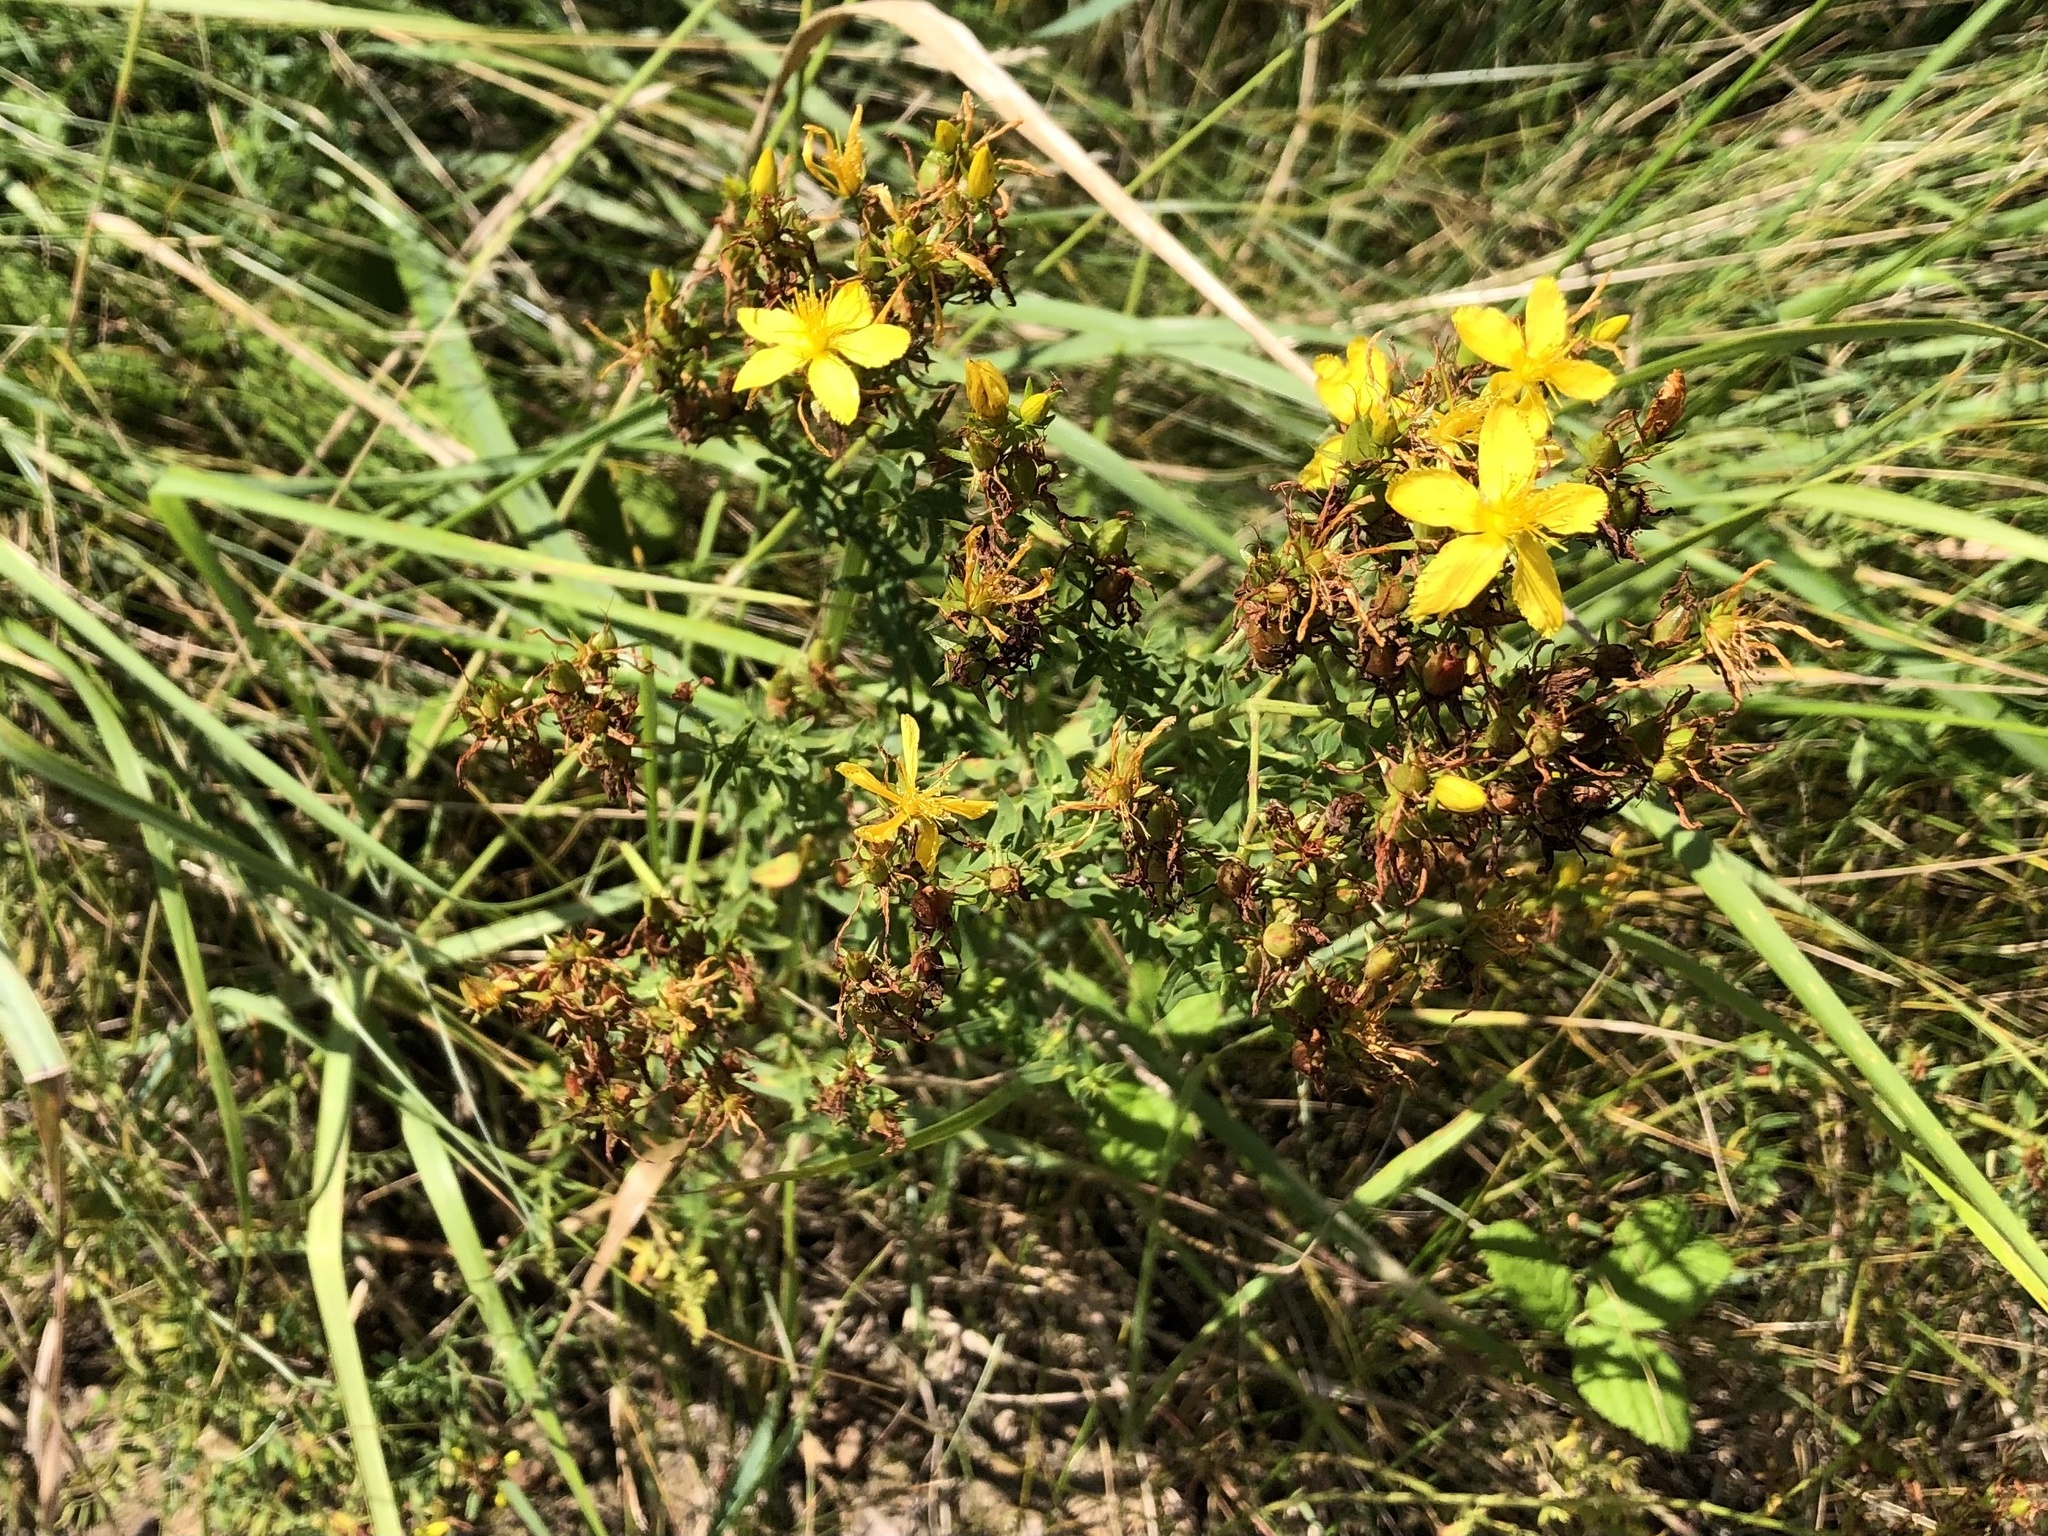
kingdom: Plantae
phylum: Tracheophyta
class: Magnoliopsida
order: Malpighiales
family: Hypericaceae
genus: Hypericum
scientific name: Hypericum perforatum
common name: Common st. johnswort
